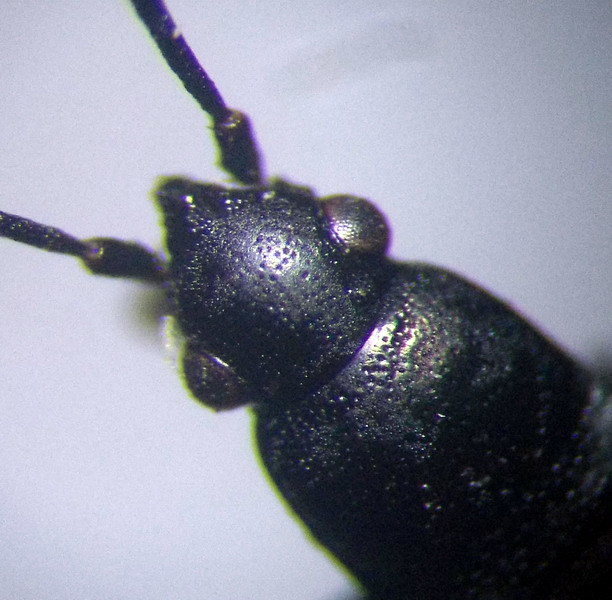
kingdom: Animalia
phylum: Arthropoda
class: Insecta
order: Hemiptera
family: Rhyparochromidae
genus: Pterotmetus
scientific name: Pterotmetus staphyliniformis
